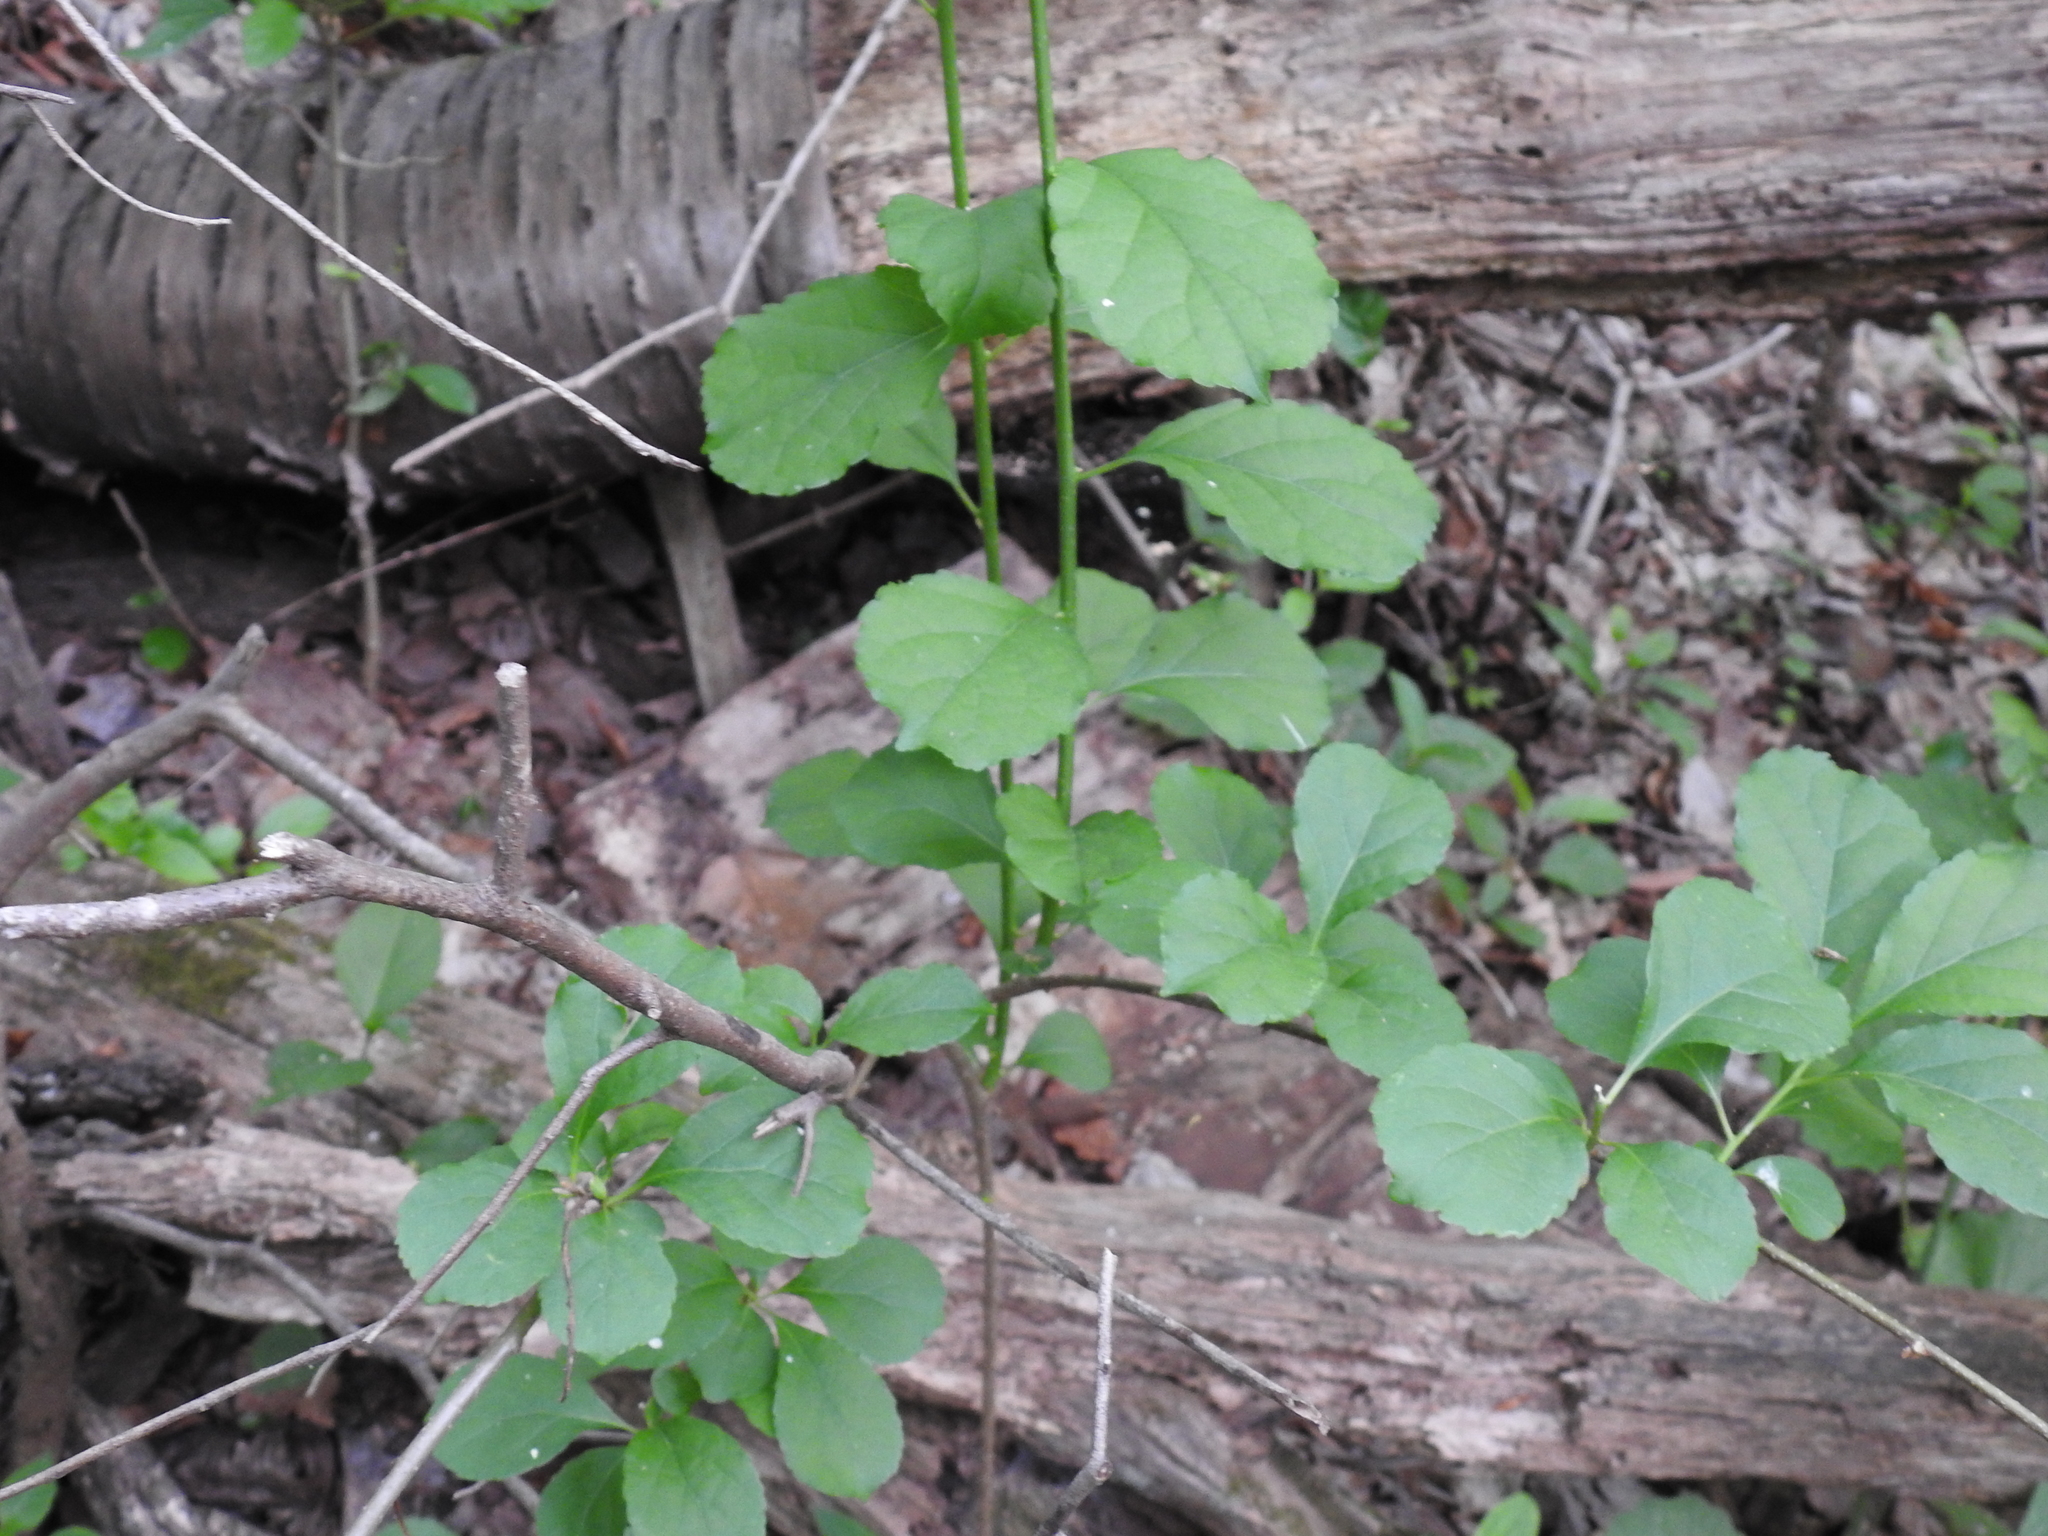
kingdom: Plantae
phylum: Tracheophyta
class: Magnoliopsida
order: Celastrales
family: Celastraceae
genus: Celastrus
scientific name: Celastrus orbiculatus
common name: Oriental bittersweet
